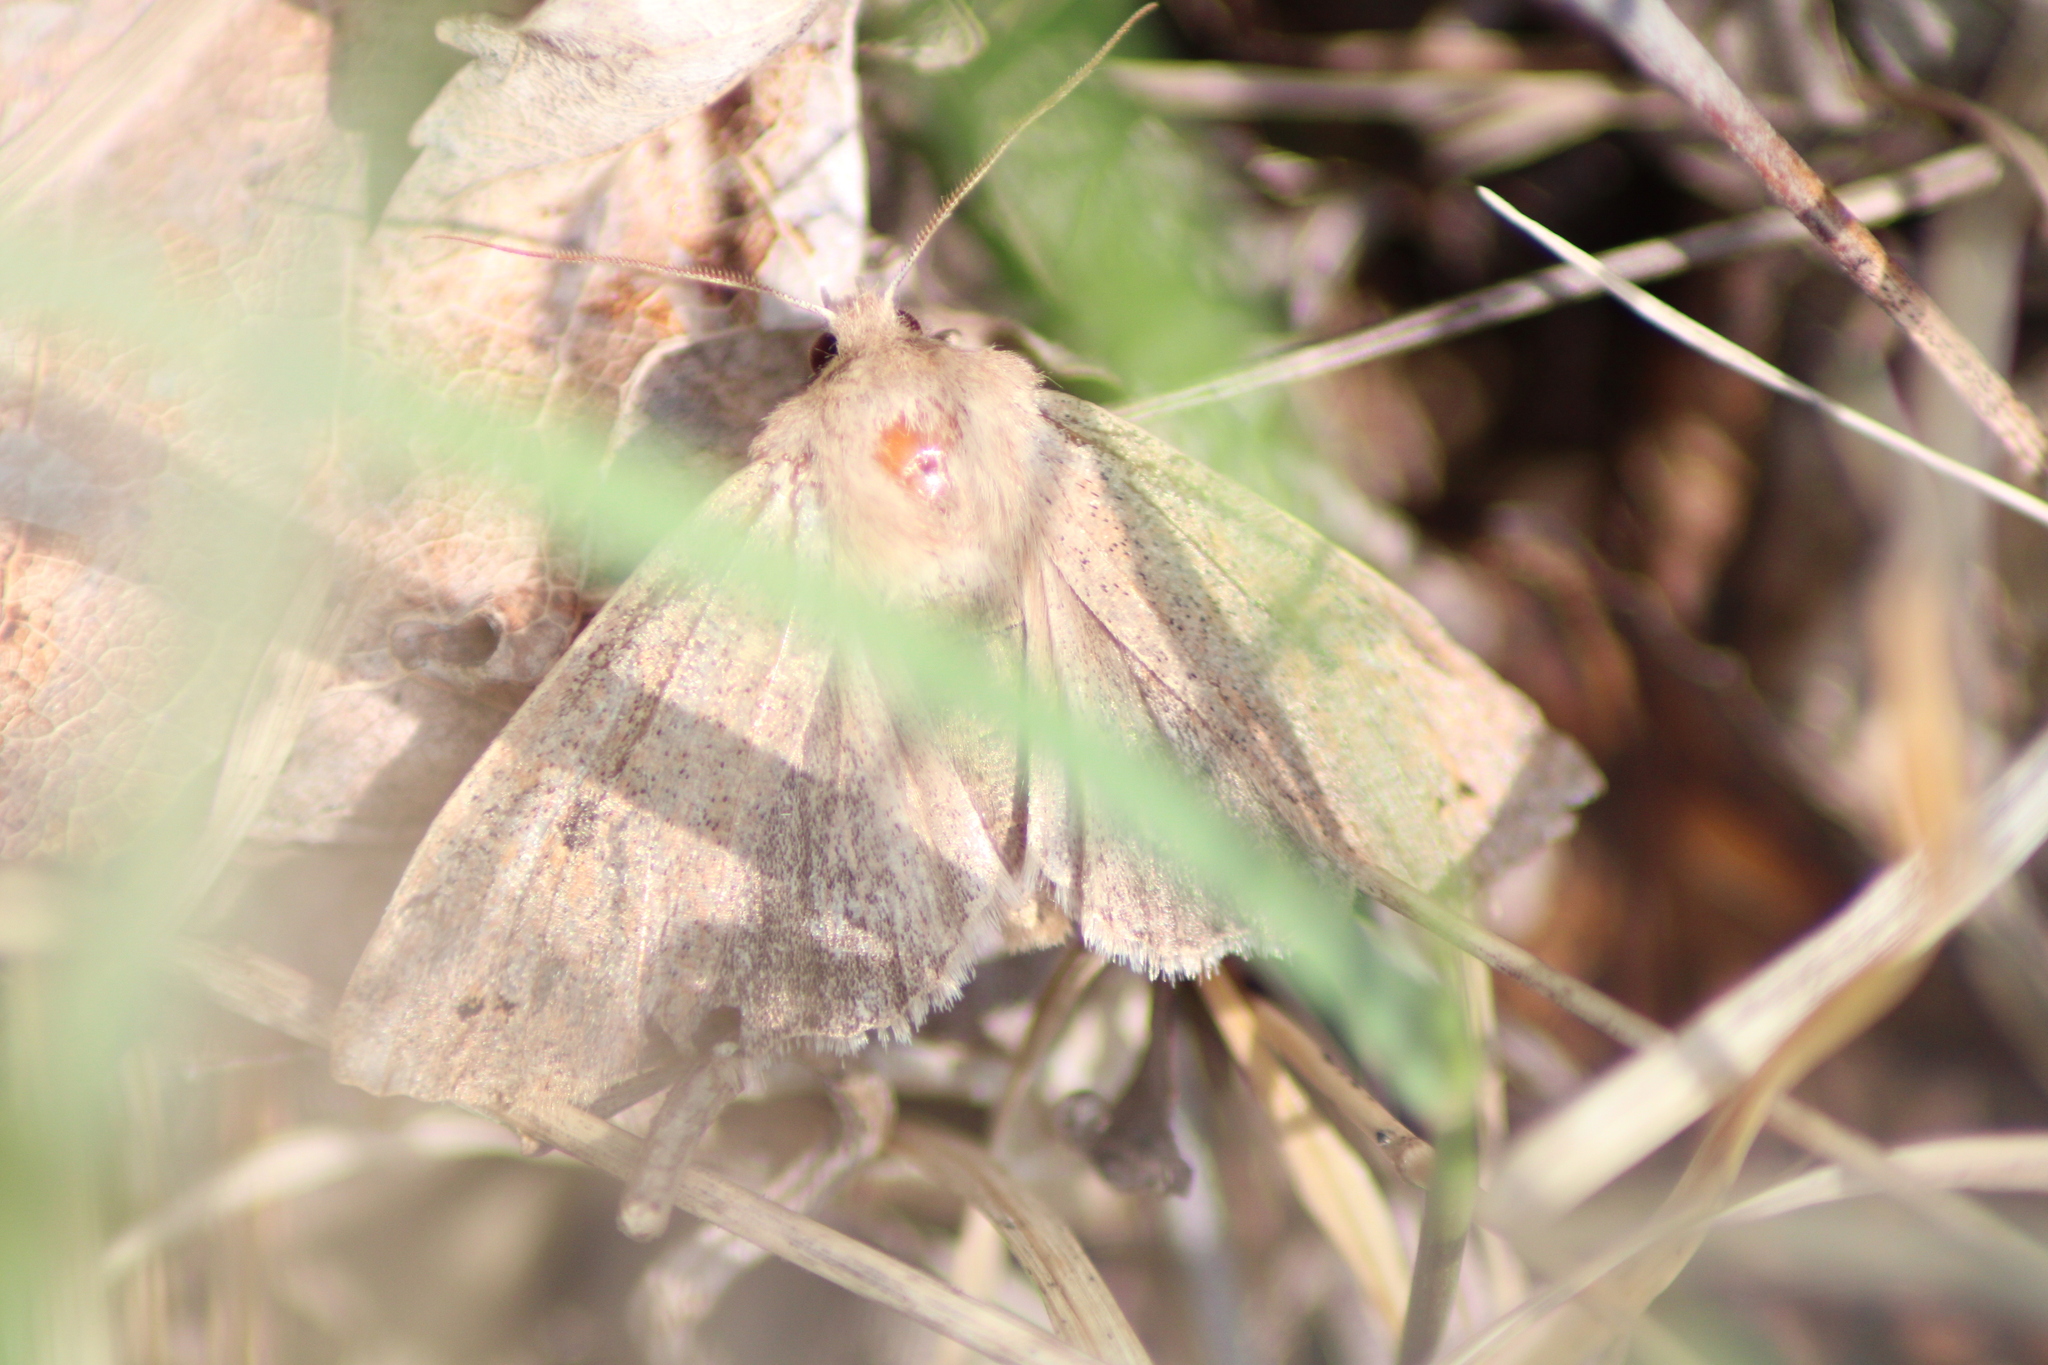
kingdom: Animalia
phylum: Arthropoda
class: Insecta
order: Lepidoptera
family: Noctuidae
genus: Anorthoa
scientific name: Anorthoa munda
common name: Twin-spotted quaker
